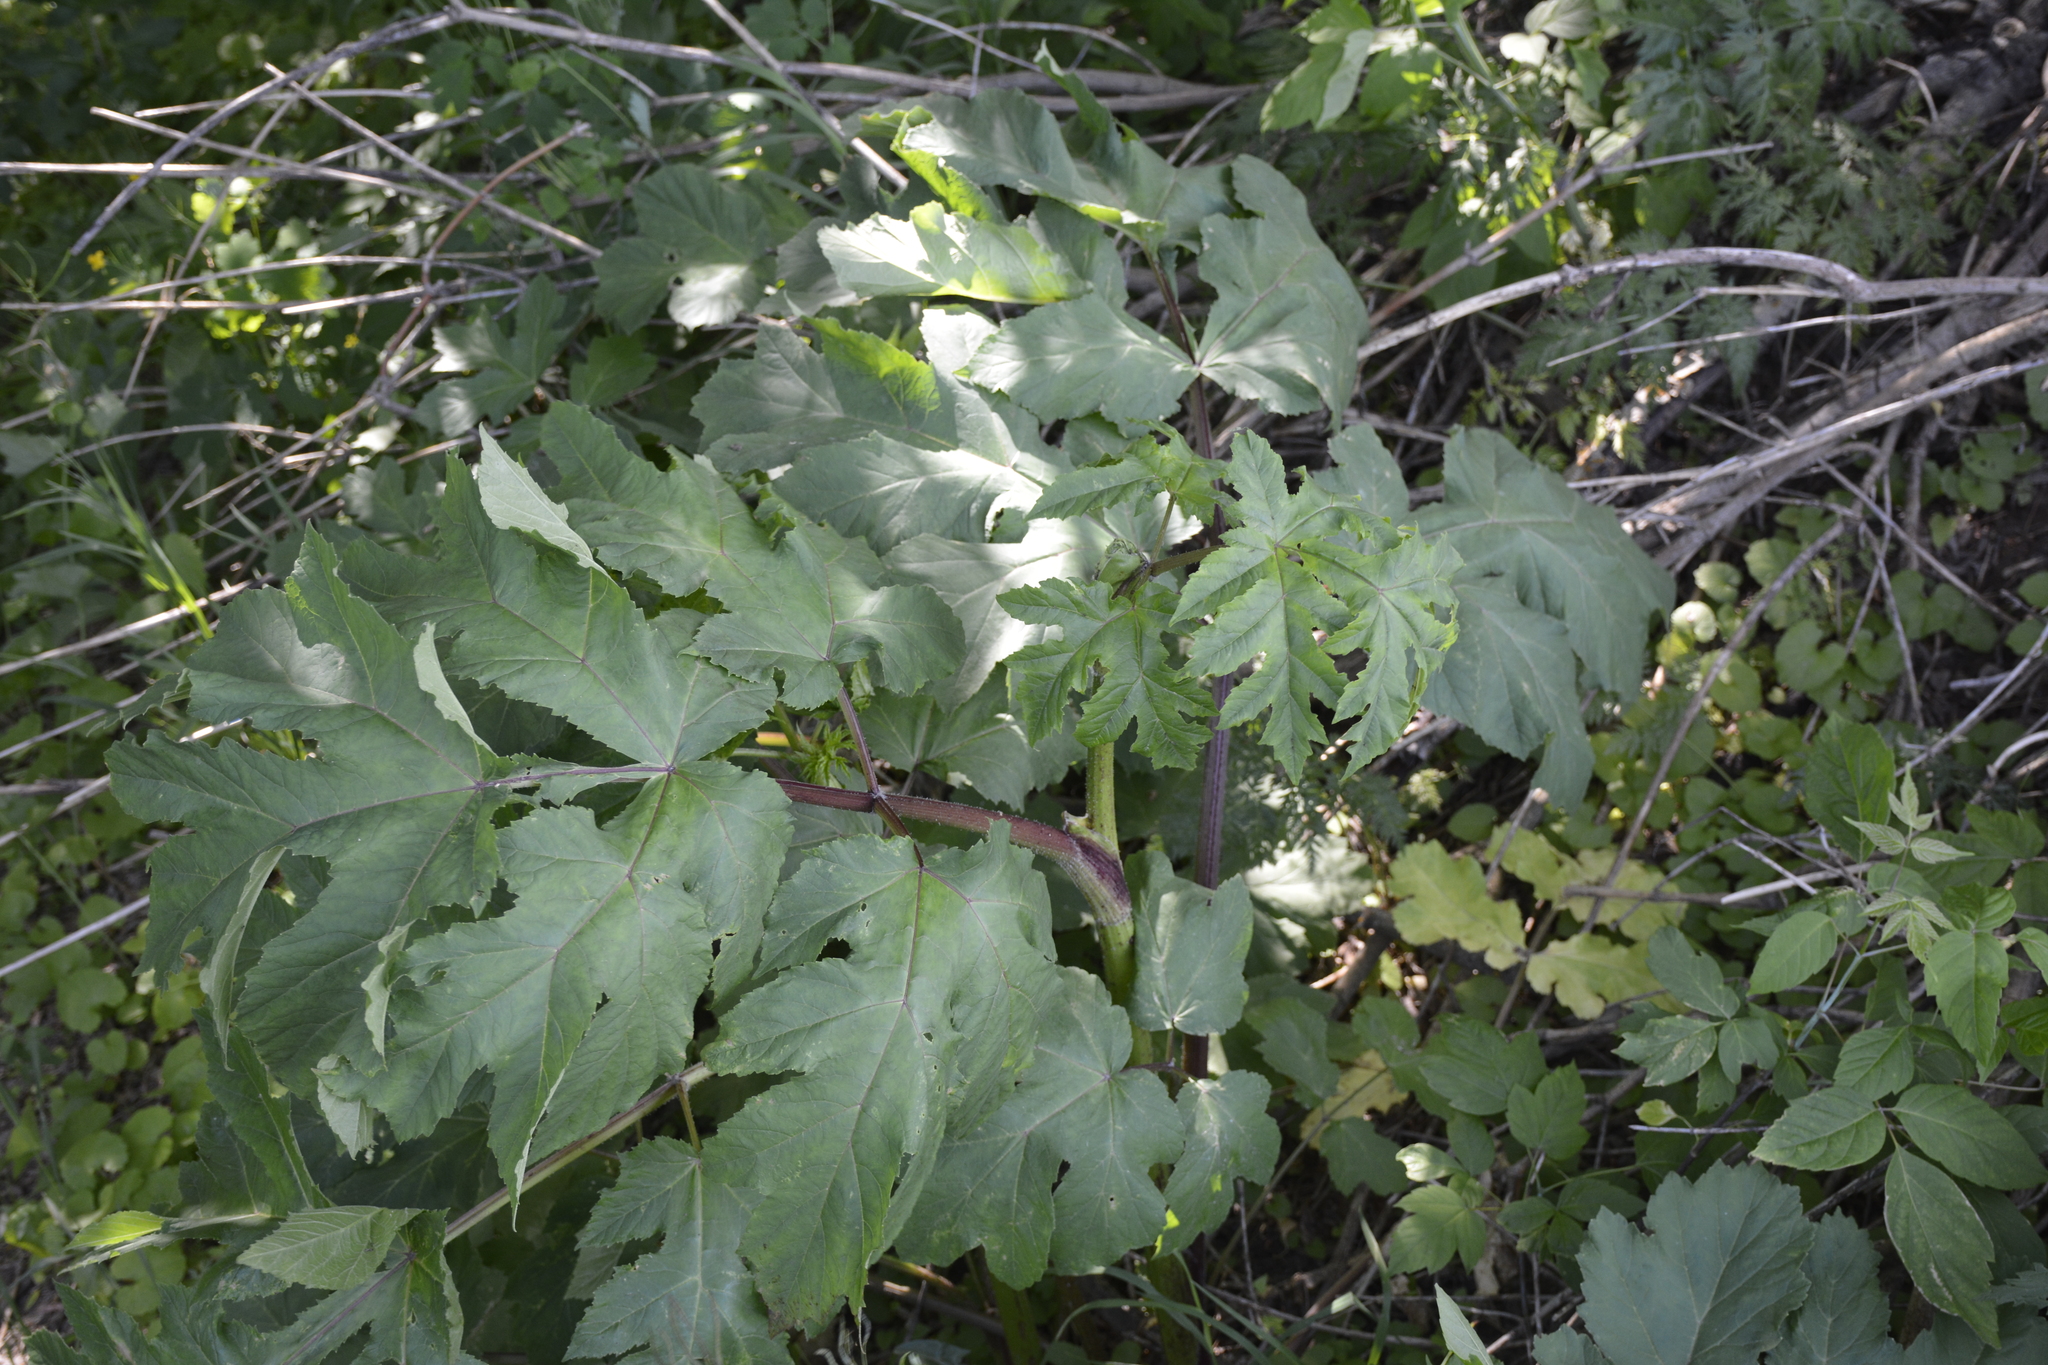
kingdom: Plantae
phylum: Tracheophyta
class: Magnoliopsida
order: Apiales
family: Apiaceae
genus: Heracleum
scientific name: Heracleum sphondylium
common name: Hogweed
